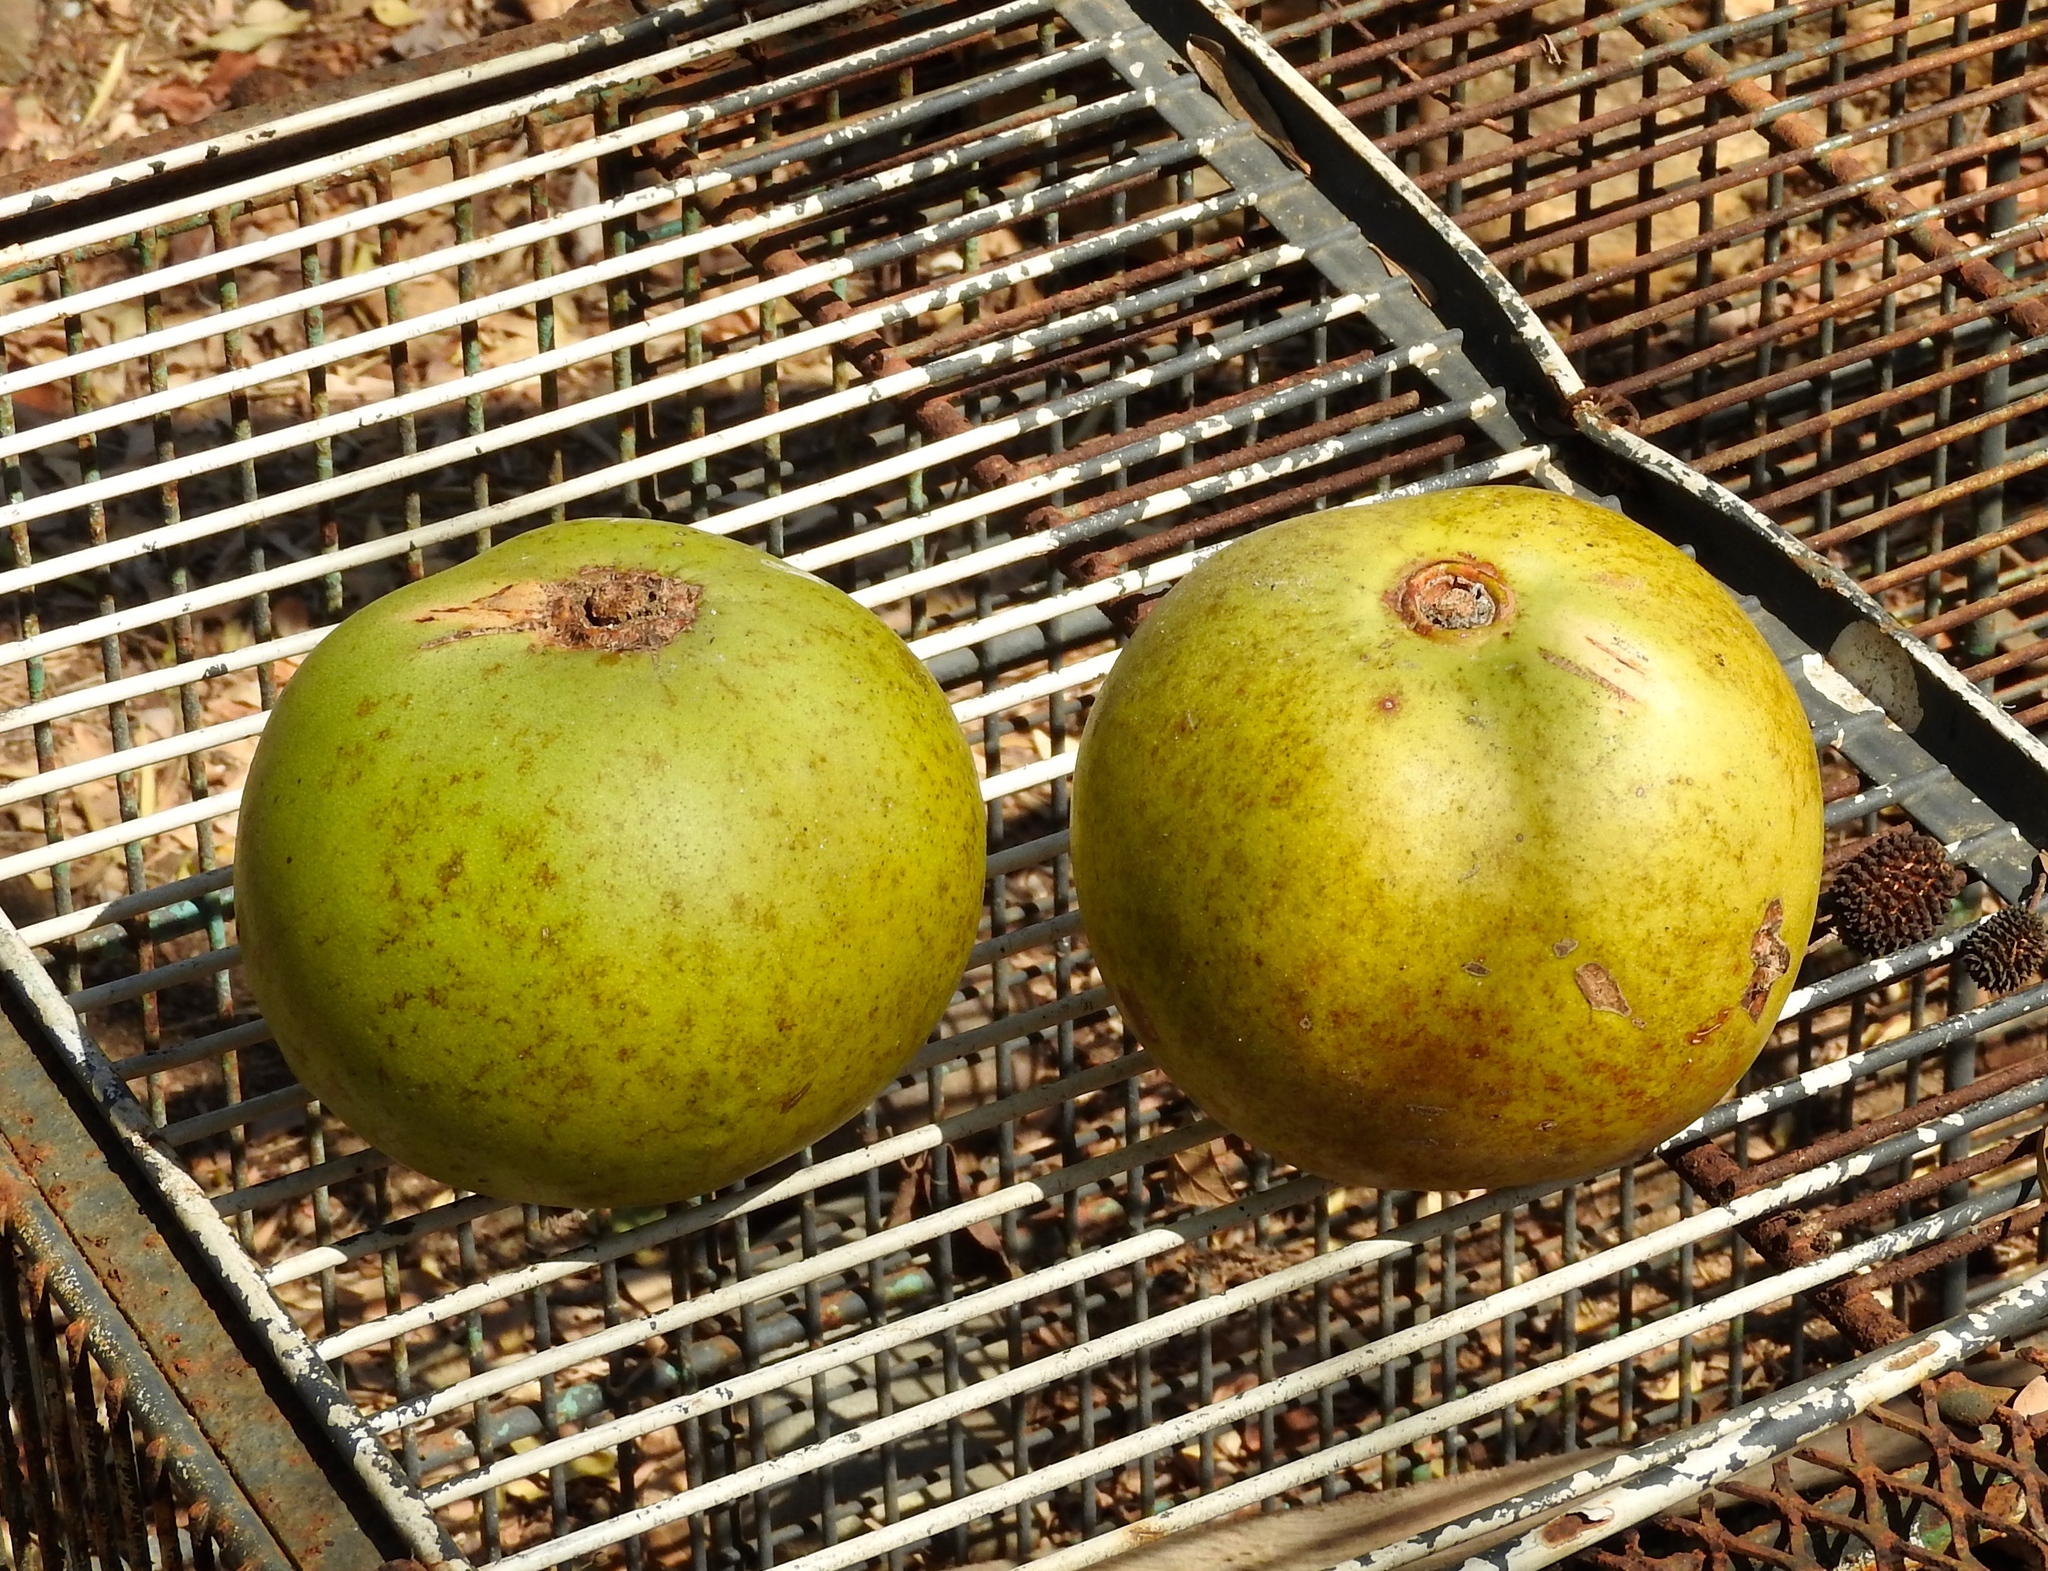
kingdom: Plantae
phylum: Tracheophyta
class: Magnoliopsida
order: Lamiales
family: Bignoniaceae
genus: Crescentia
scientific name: Crescentia alata
